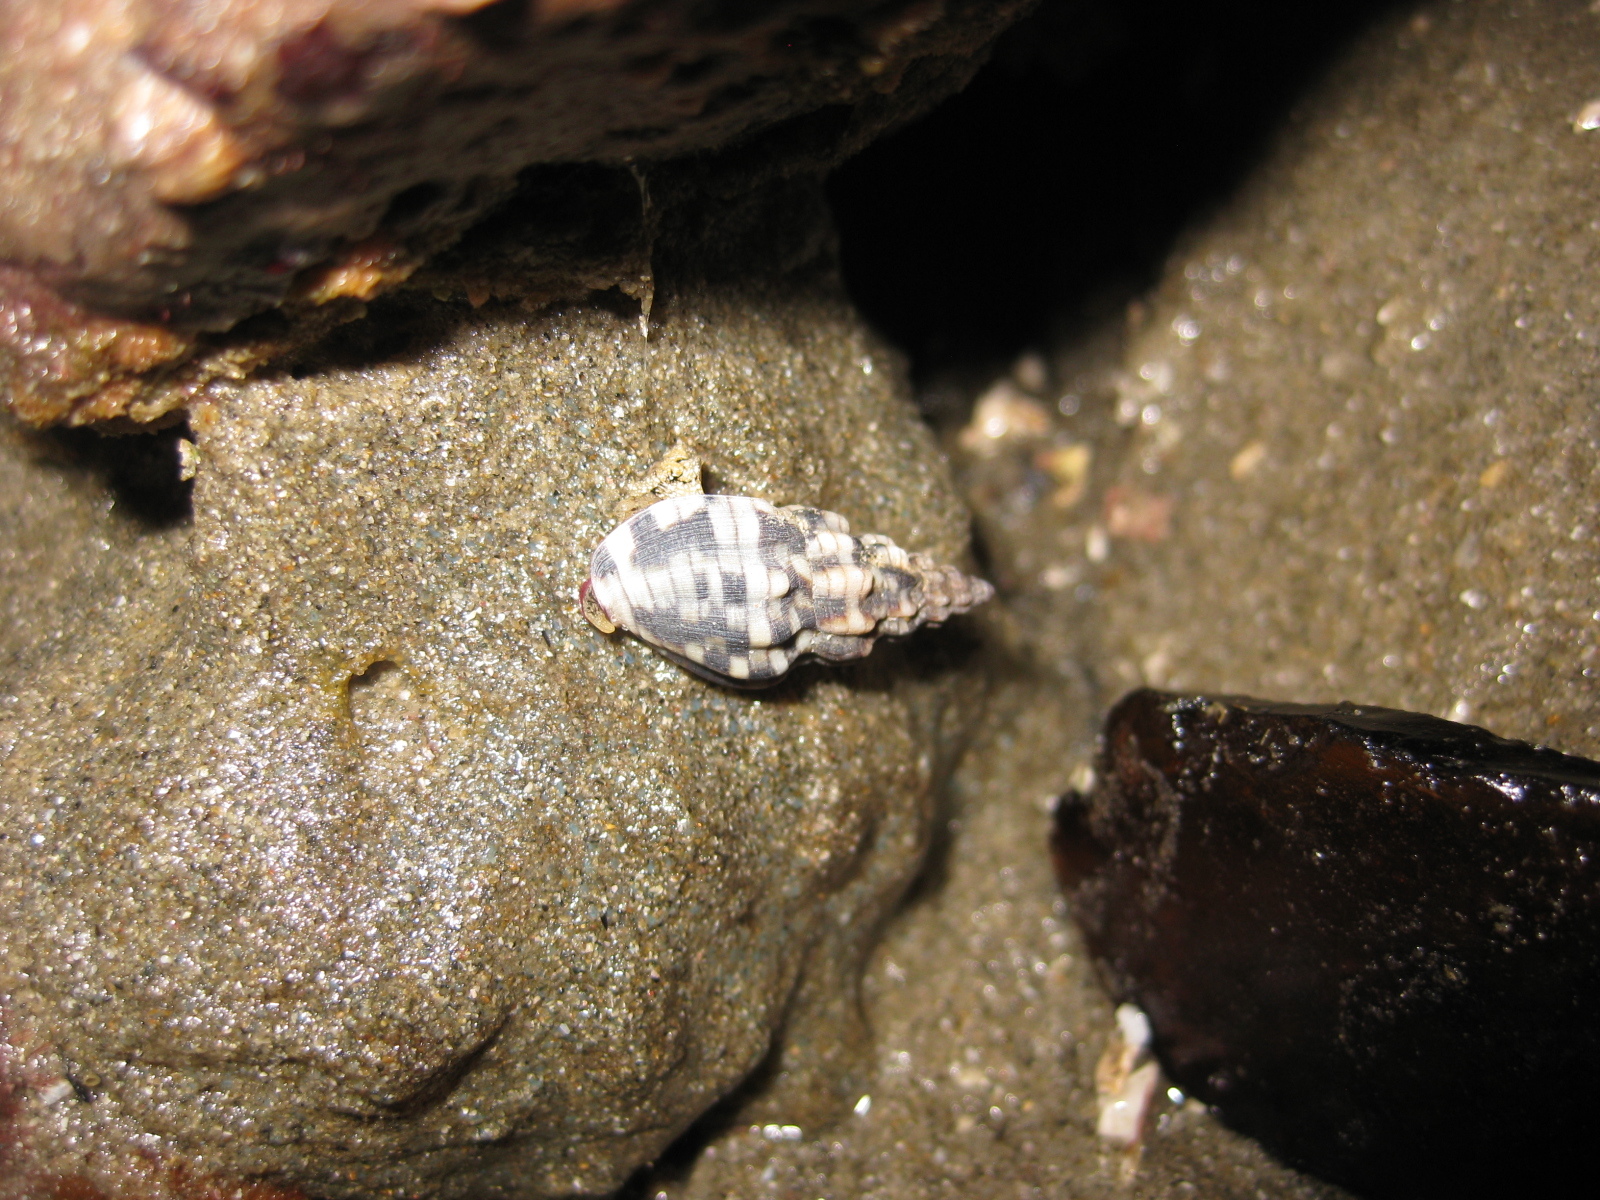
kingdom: Animalia
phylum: Mollusca
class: Gastropoda
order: Neogastropoda
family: Cominellidae
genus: Cominella
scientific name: Cominella quoyana
